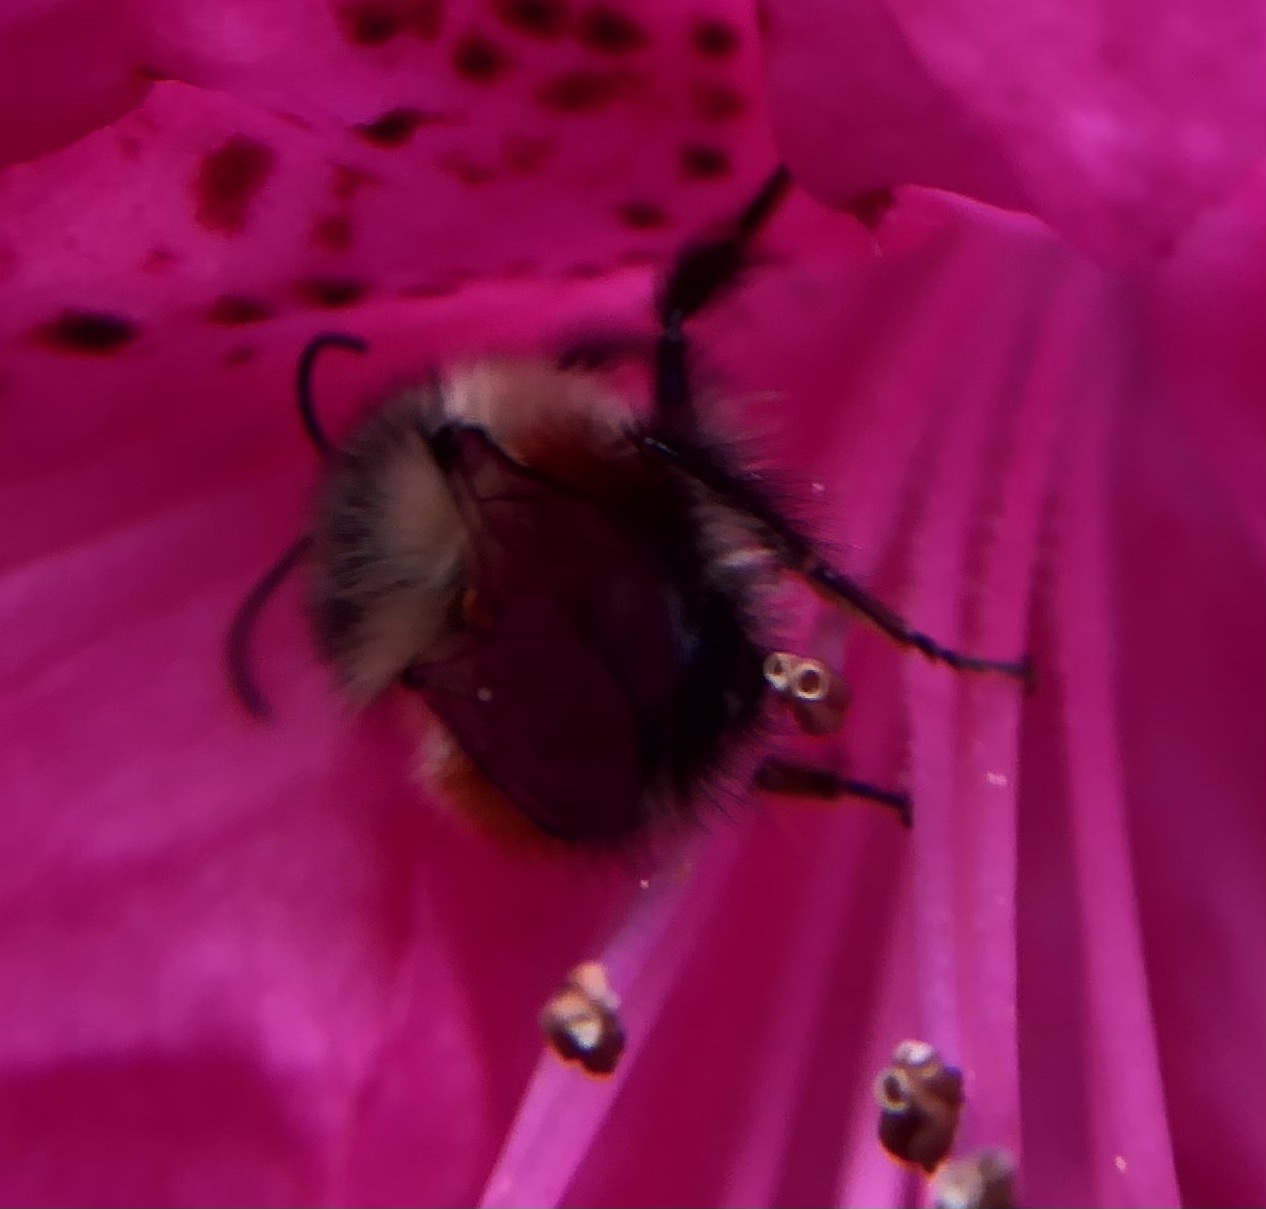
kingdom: Animalia
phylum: Arthropoda
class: Insecta
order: Hymenoptera
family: Apidae
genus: Bombus
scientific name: Bombus melanopygus
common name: Black tail bumble bee
